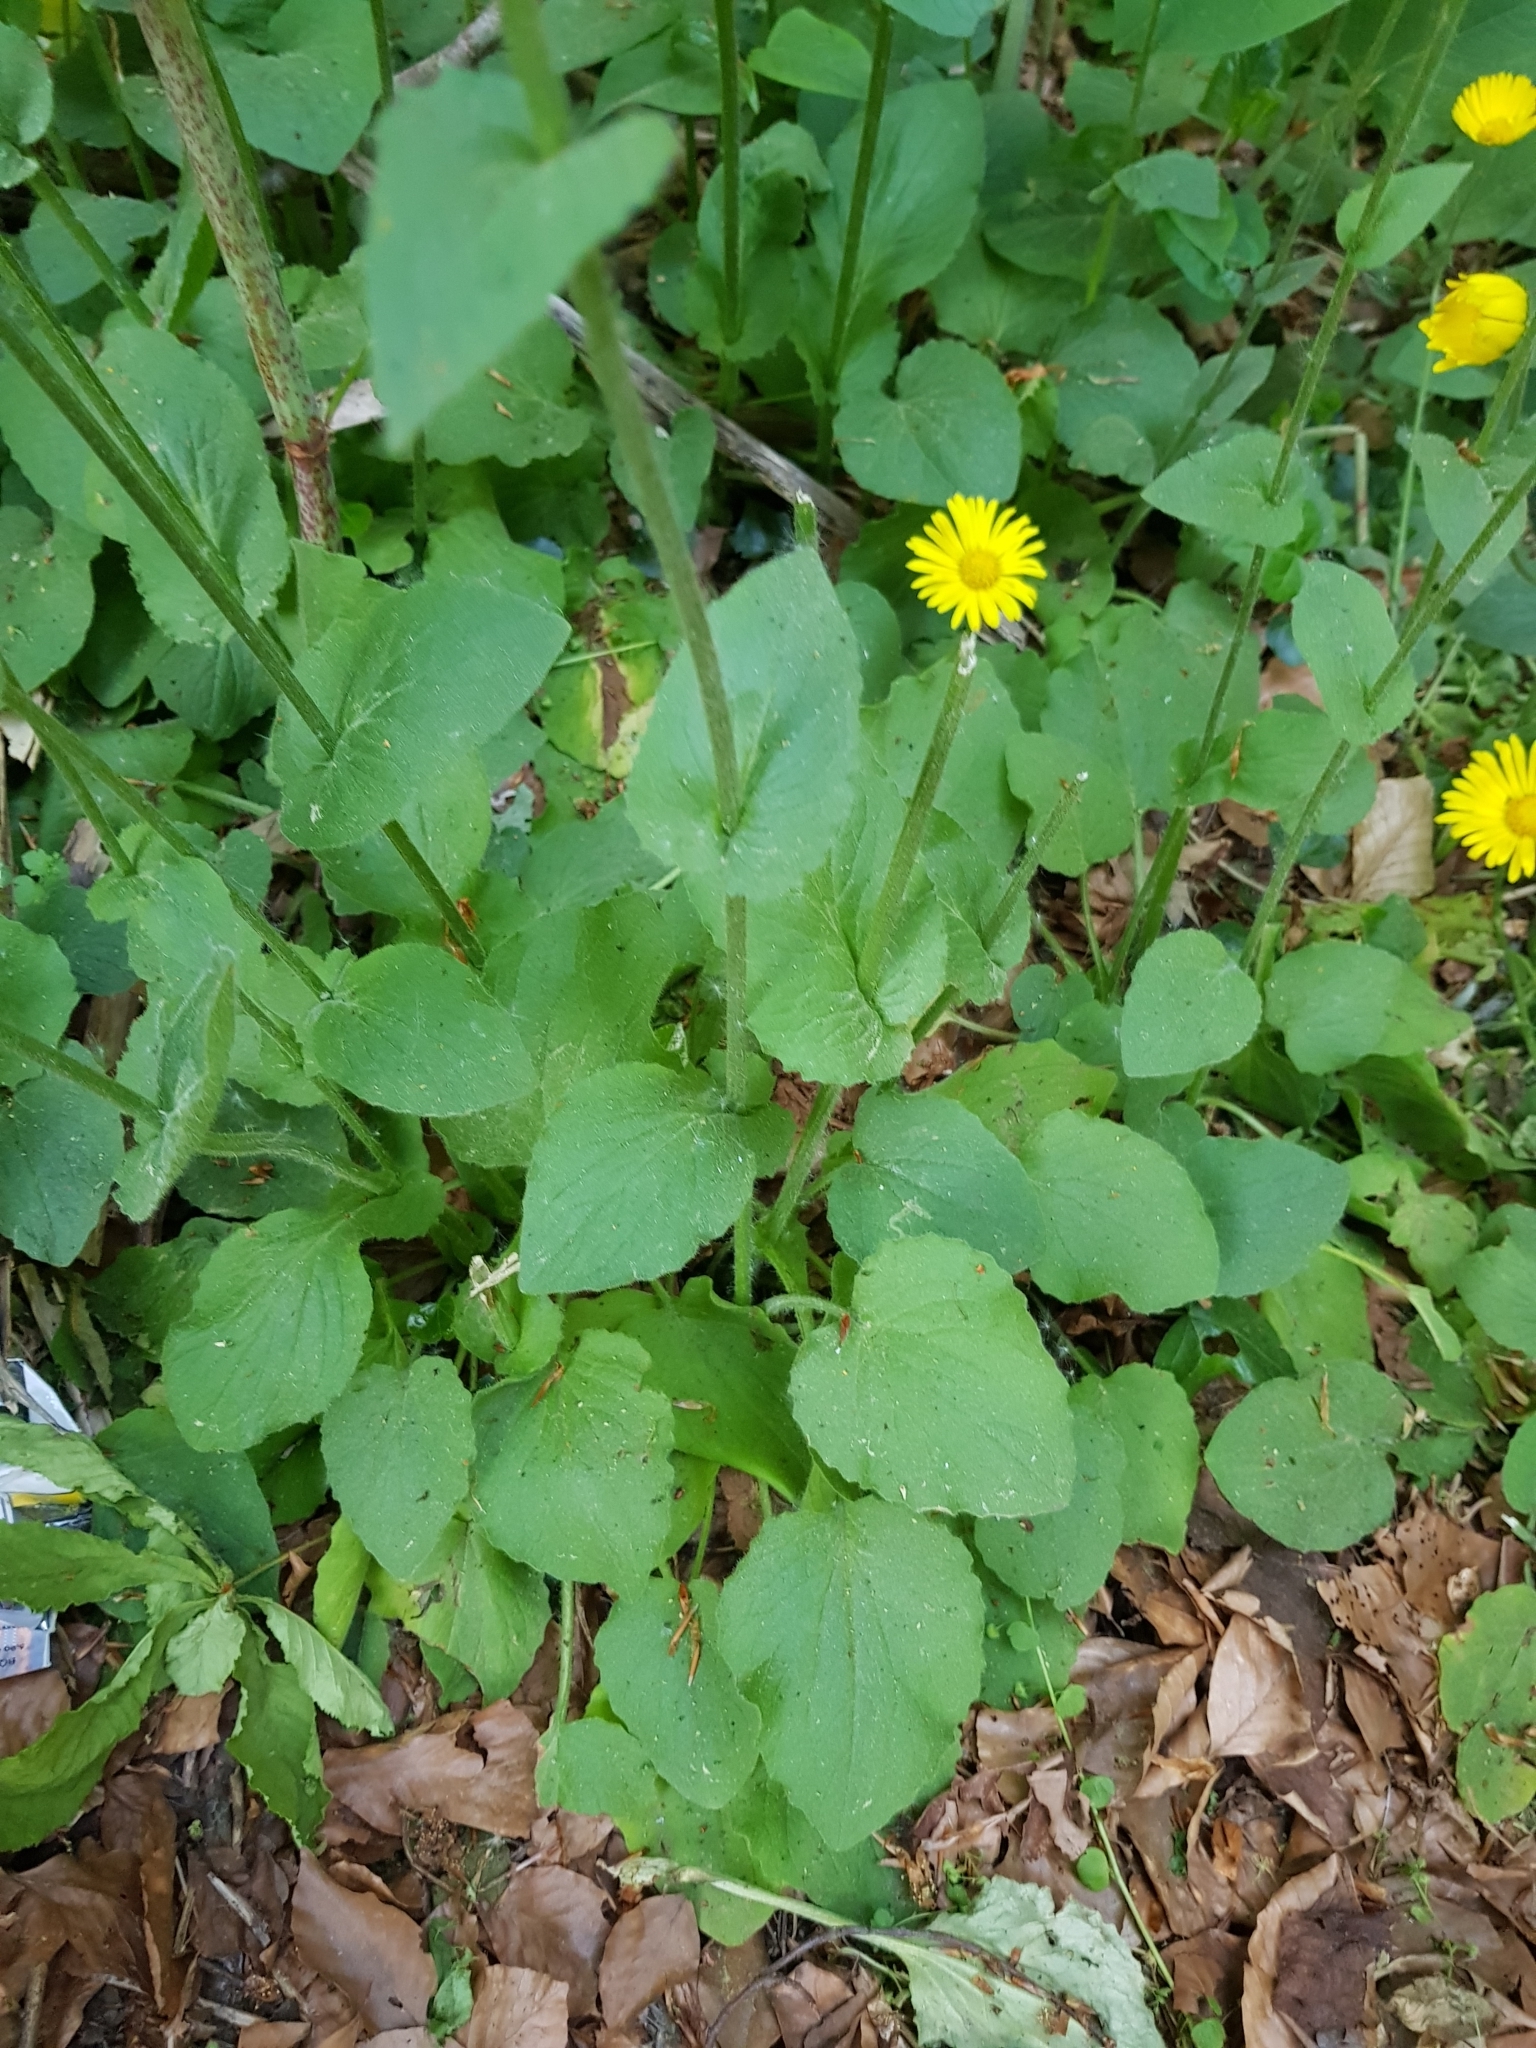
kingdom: Plantae
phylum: Tracheophyta
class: Magnoliopsida
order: Asterales
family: Asteraceae
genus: Helianthus
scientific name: Helianthus tuberosus
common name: Jerusalem artichoke
